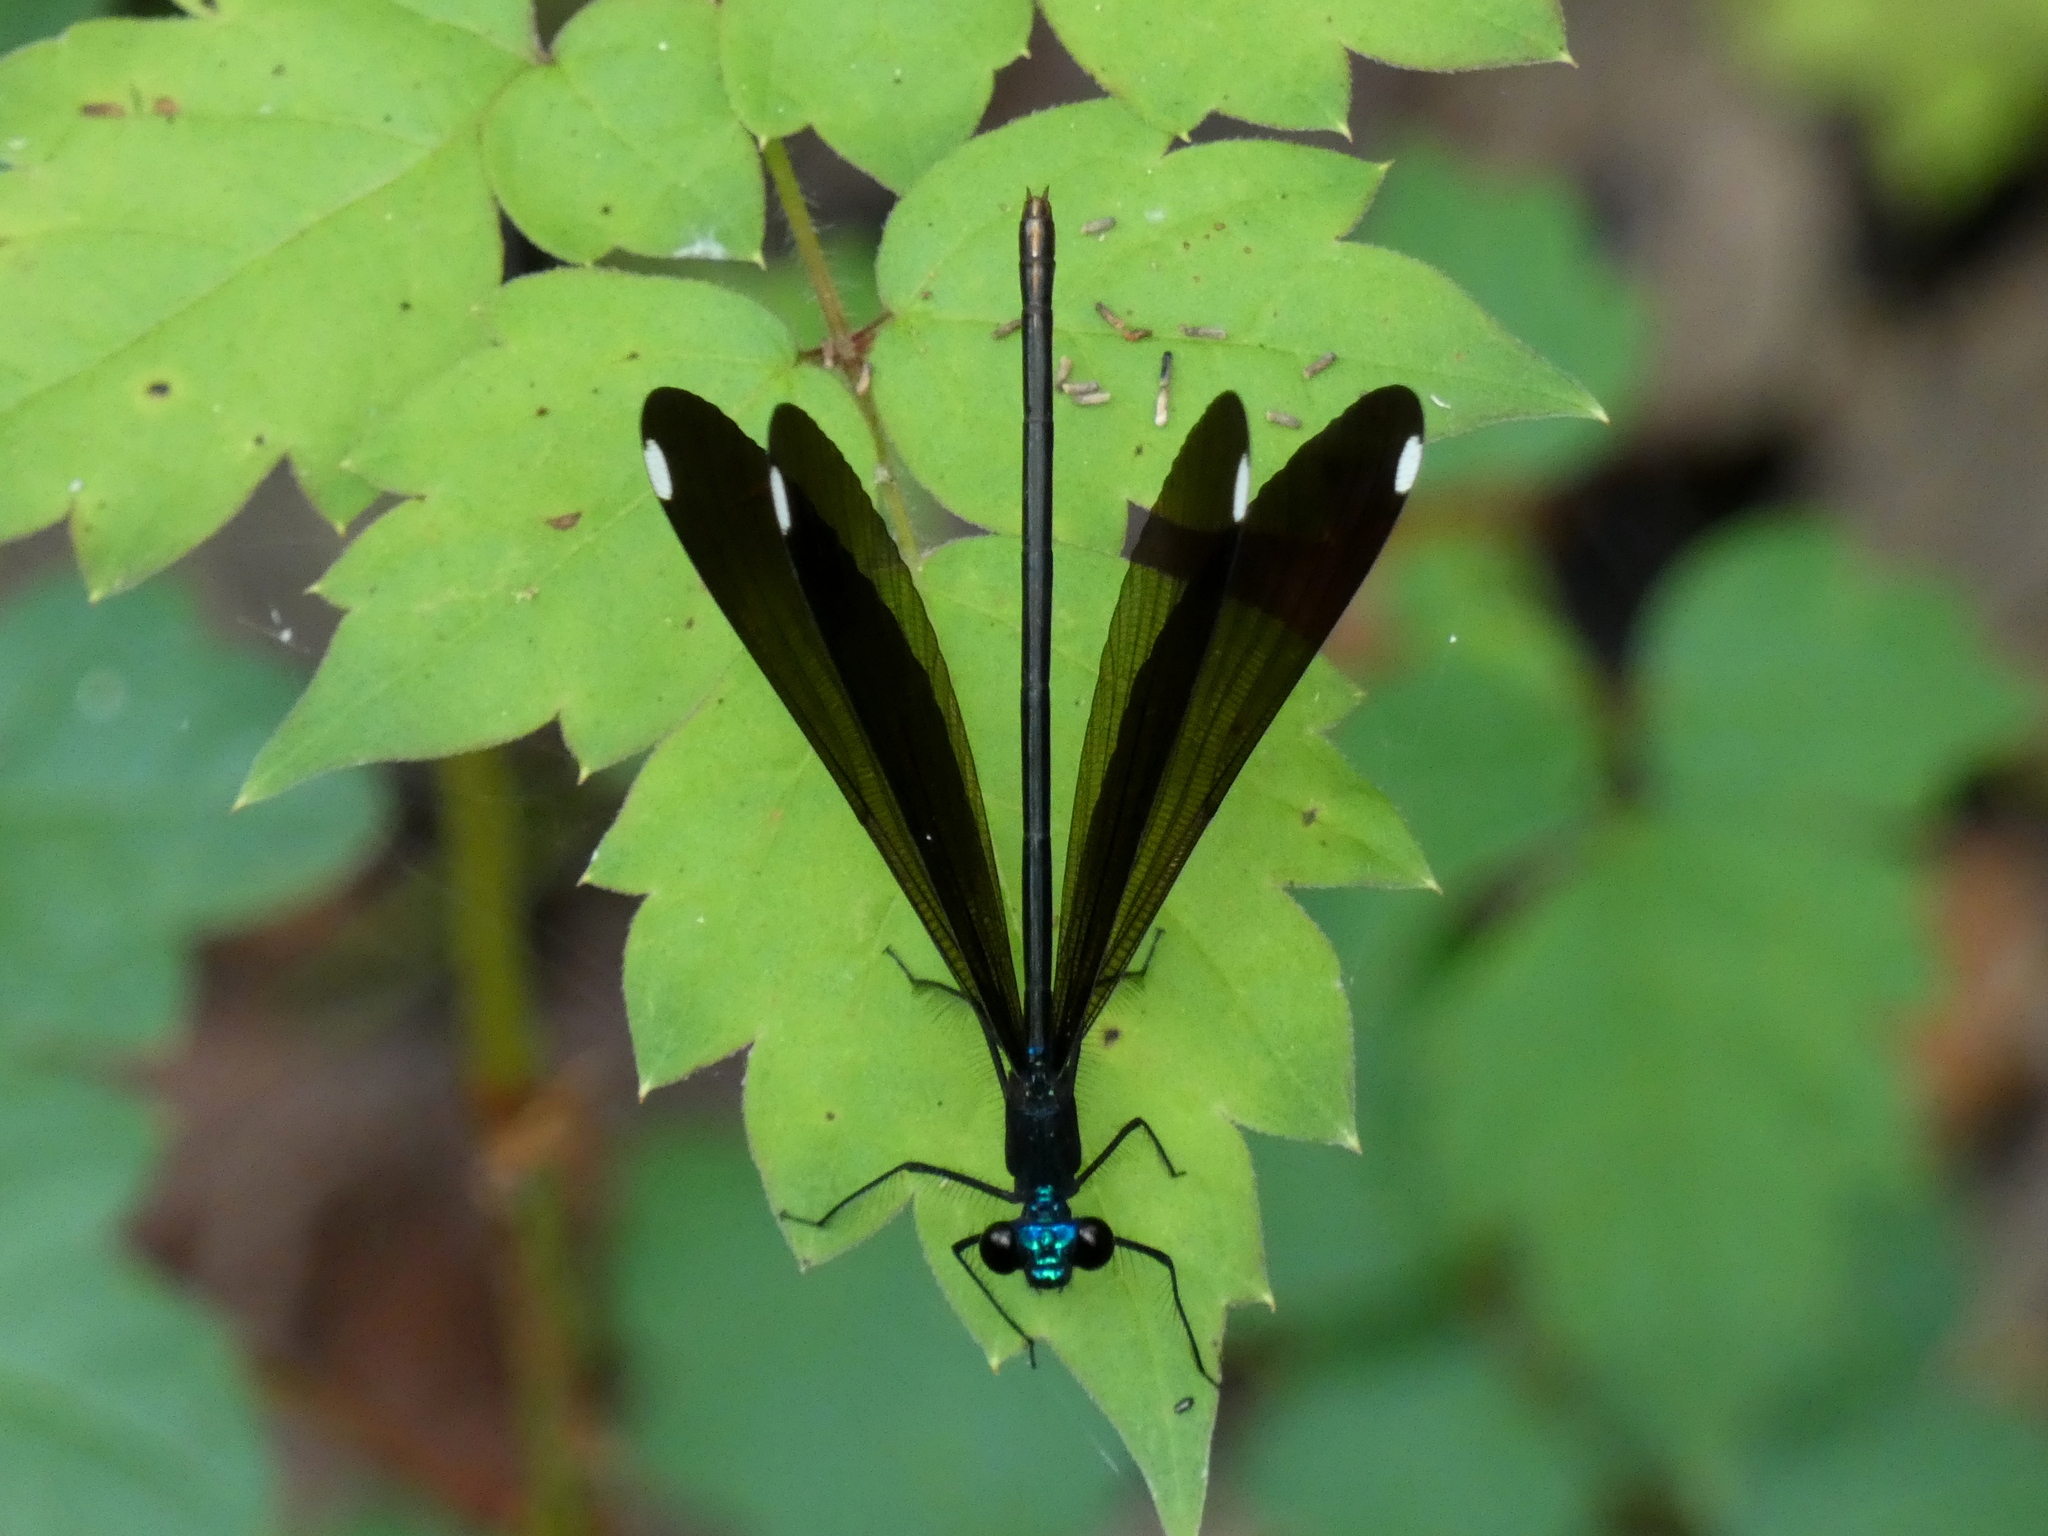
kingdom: Animalia
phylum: Arthropoda
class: Insecta
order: Odonata
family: Calopterygidae
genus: Calopteryx
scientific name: Calopteryx maculata
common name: Ebony jewelwing
